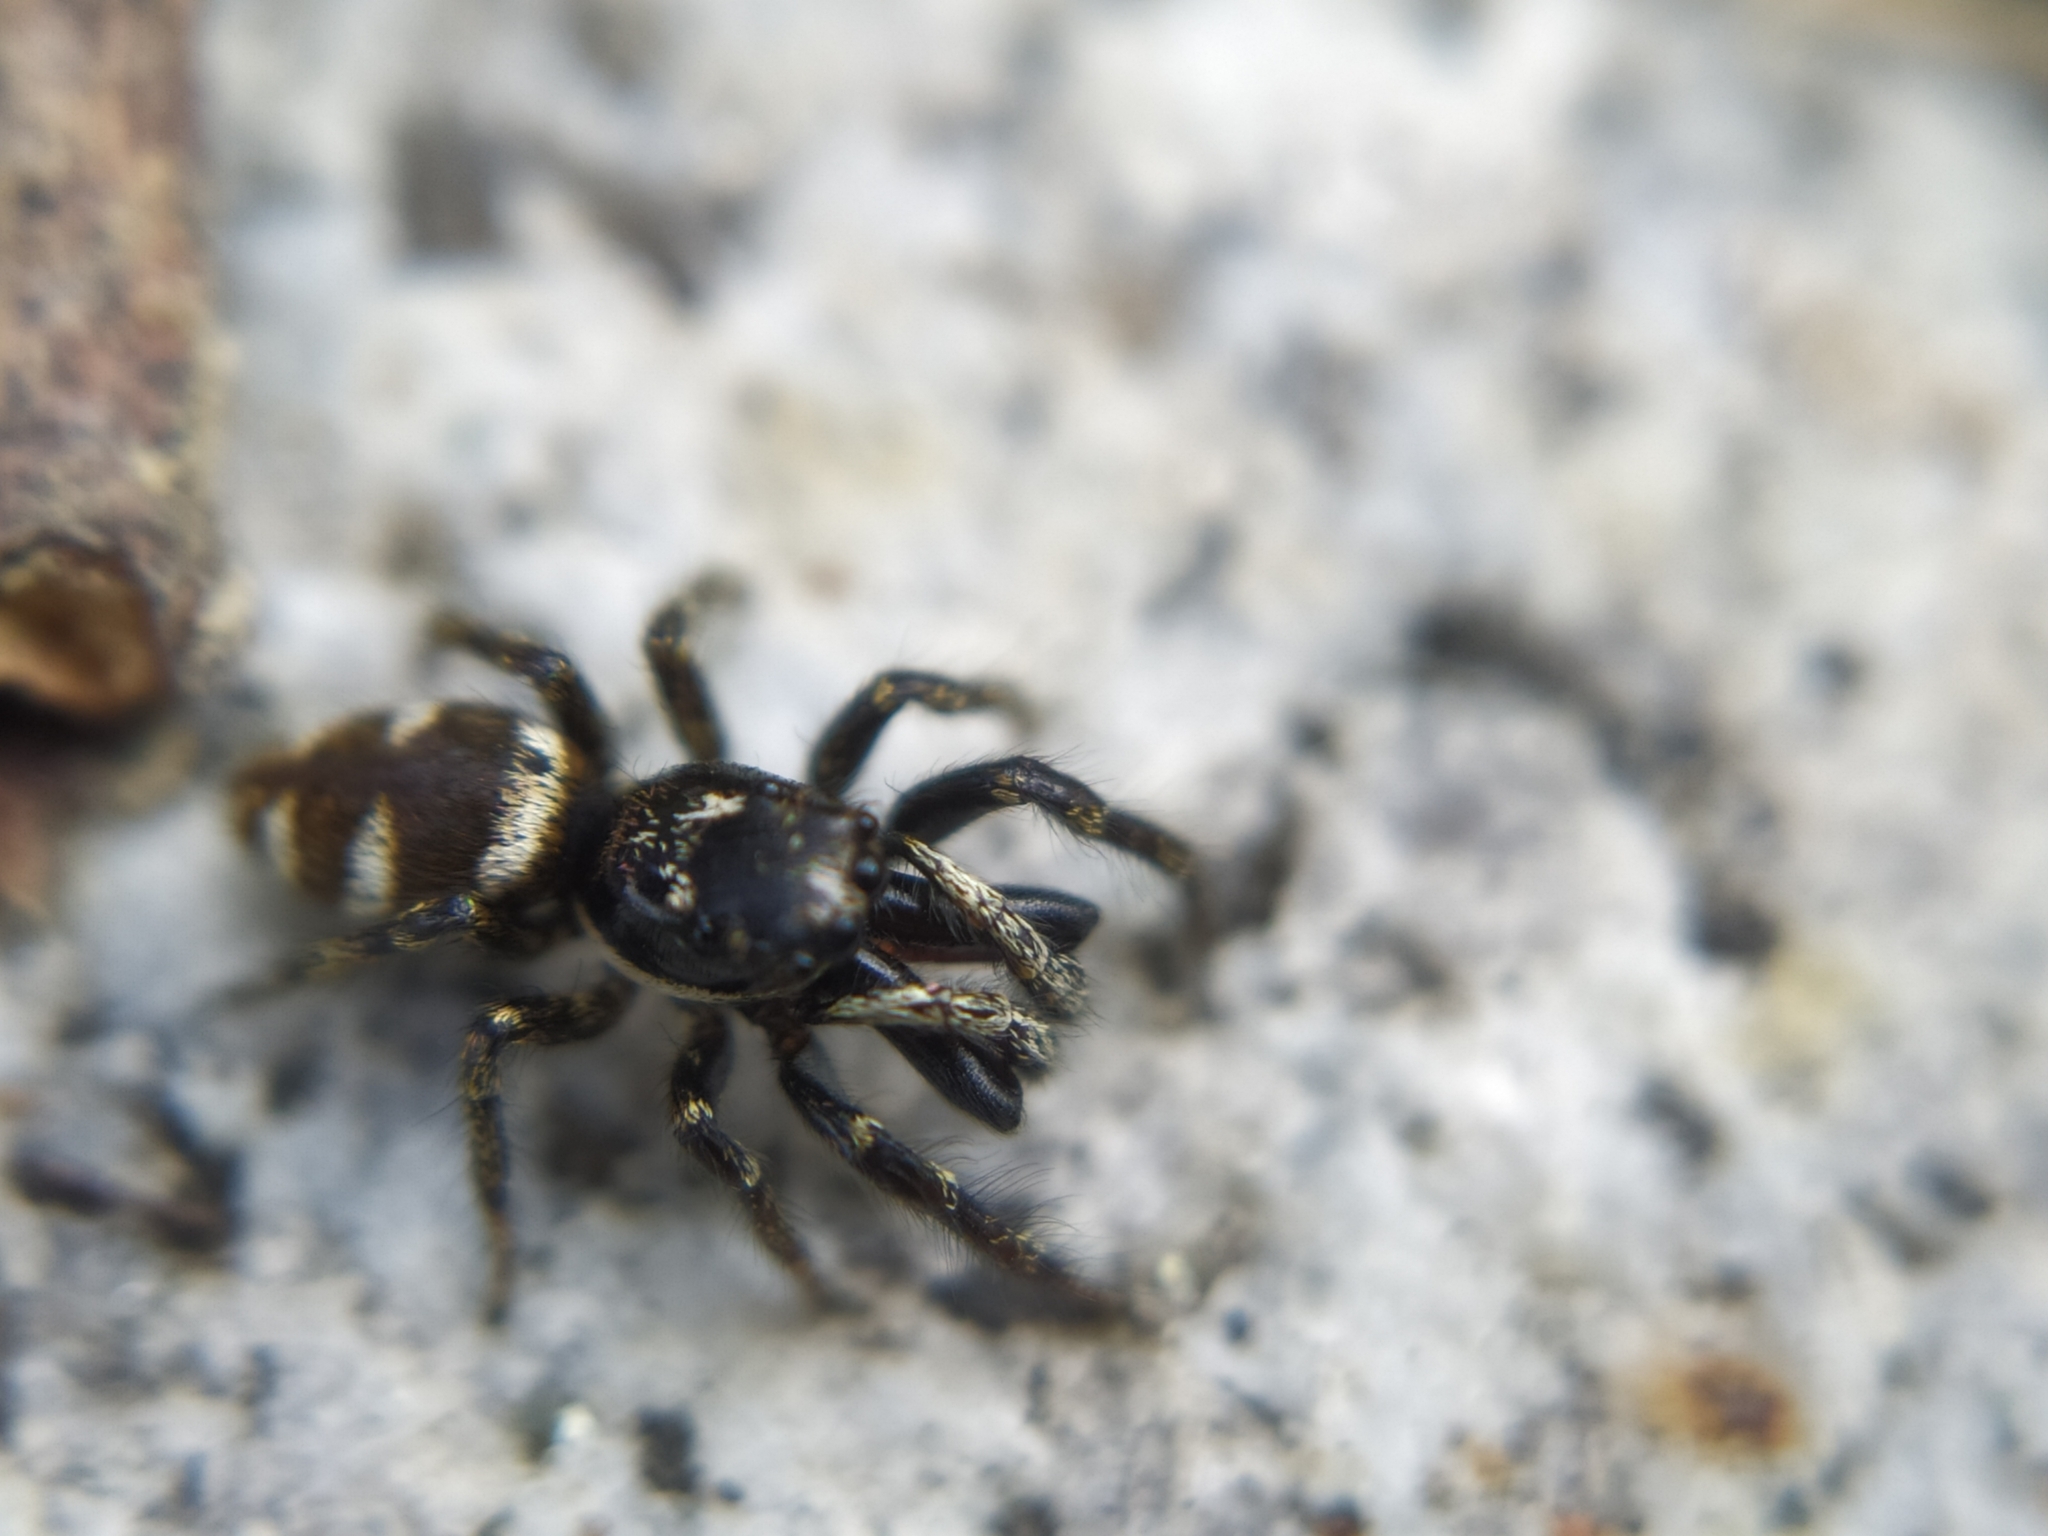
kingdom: Animalia
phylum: Arthropoda
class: Arachnida
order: Araneae
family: Salticidae
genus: Salticus
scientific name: Salticus scenicus
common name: Zebra jumper
